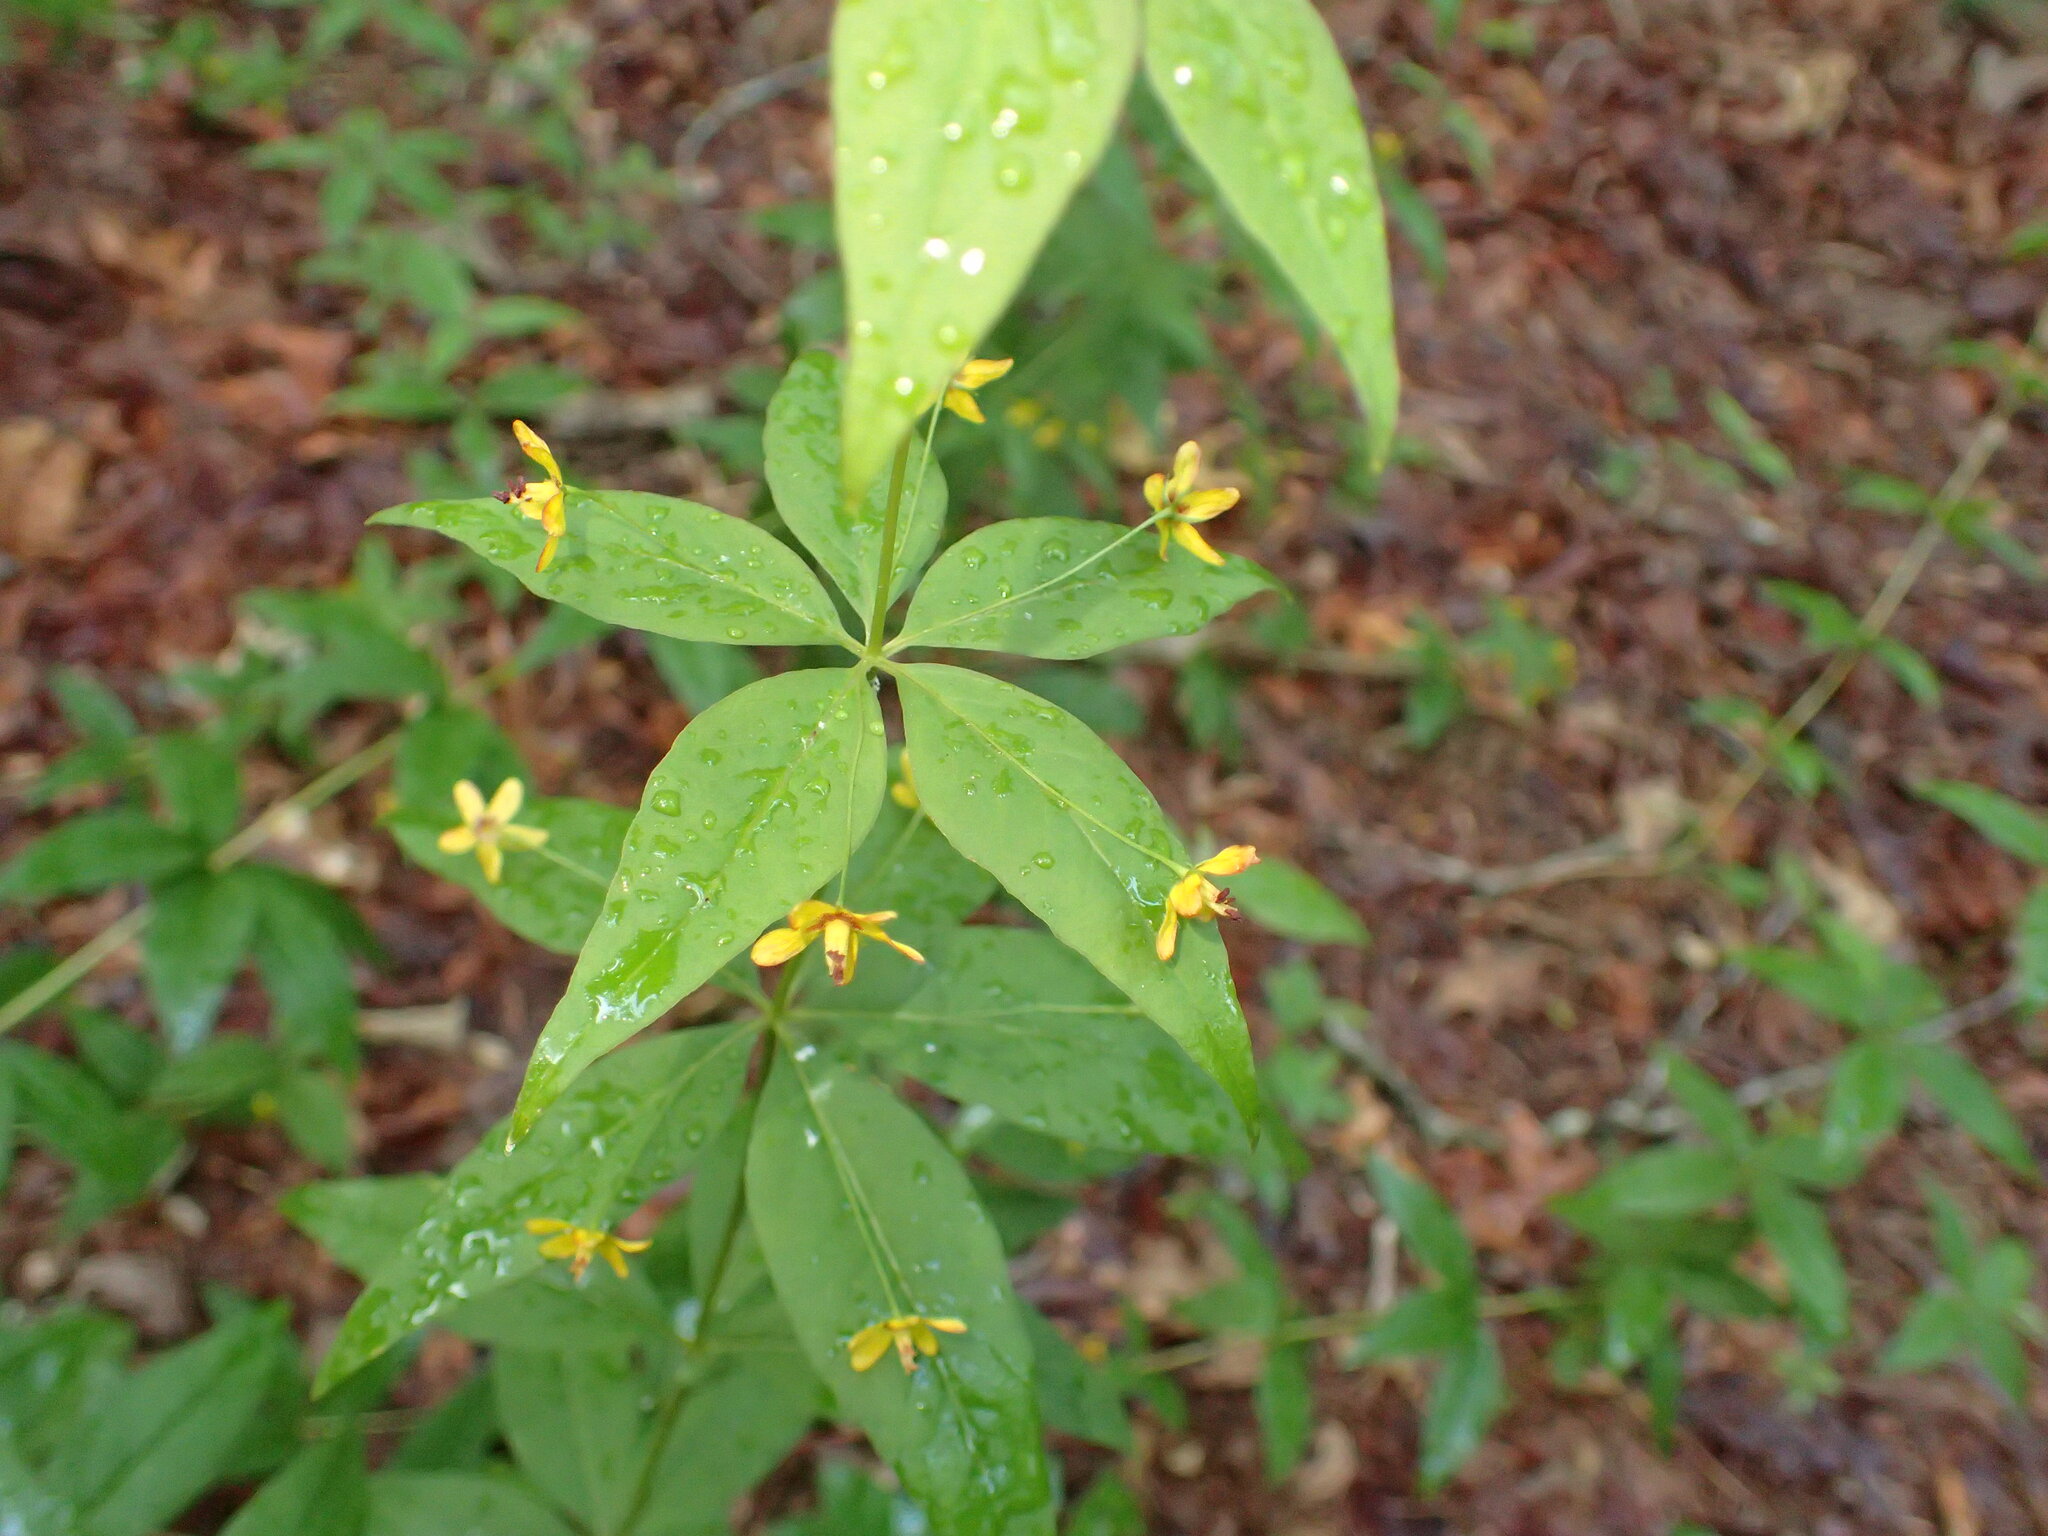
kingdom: Plantae
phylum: Tracheophyta
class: Magnoliopsida
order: Ericales
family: Primulaceae
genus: Lysimachia
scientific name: Lysimachia quadrifolia
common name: Whorled loosestrife
